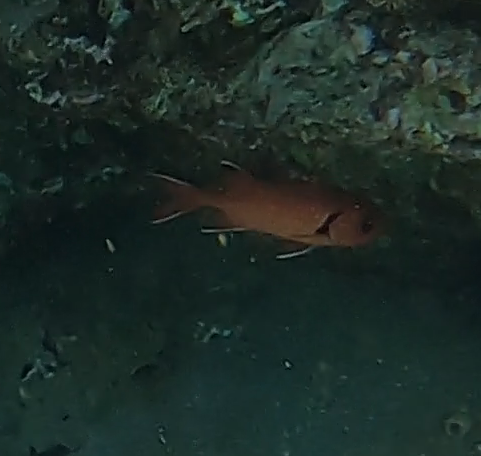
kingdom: Animalia
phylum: Chordata
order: Beryciformes
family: Holocentridae
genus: Myripristis
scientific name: Myripristis murdjan
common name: Big-eye soldierfish
